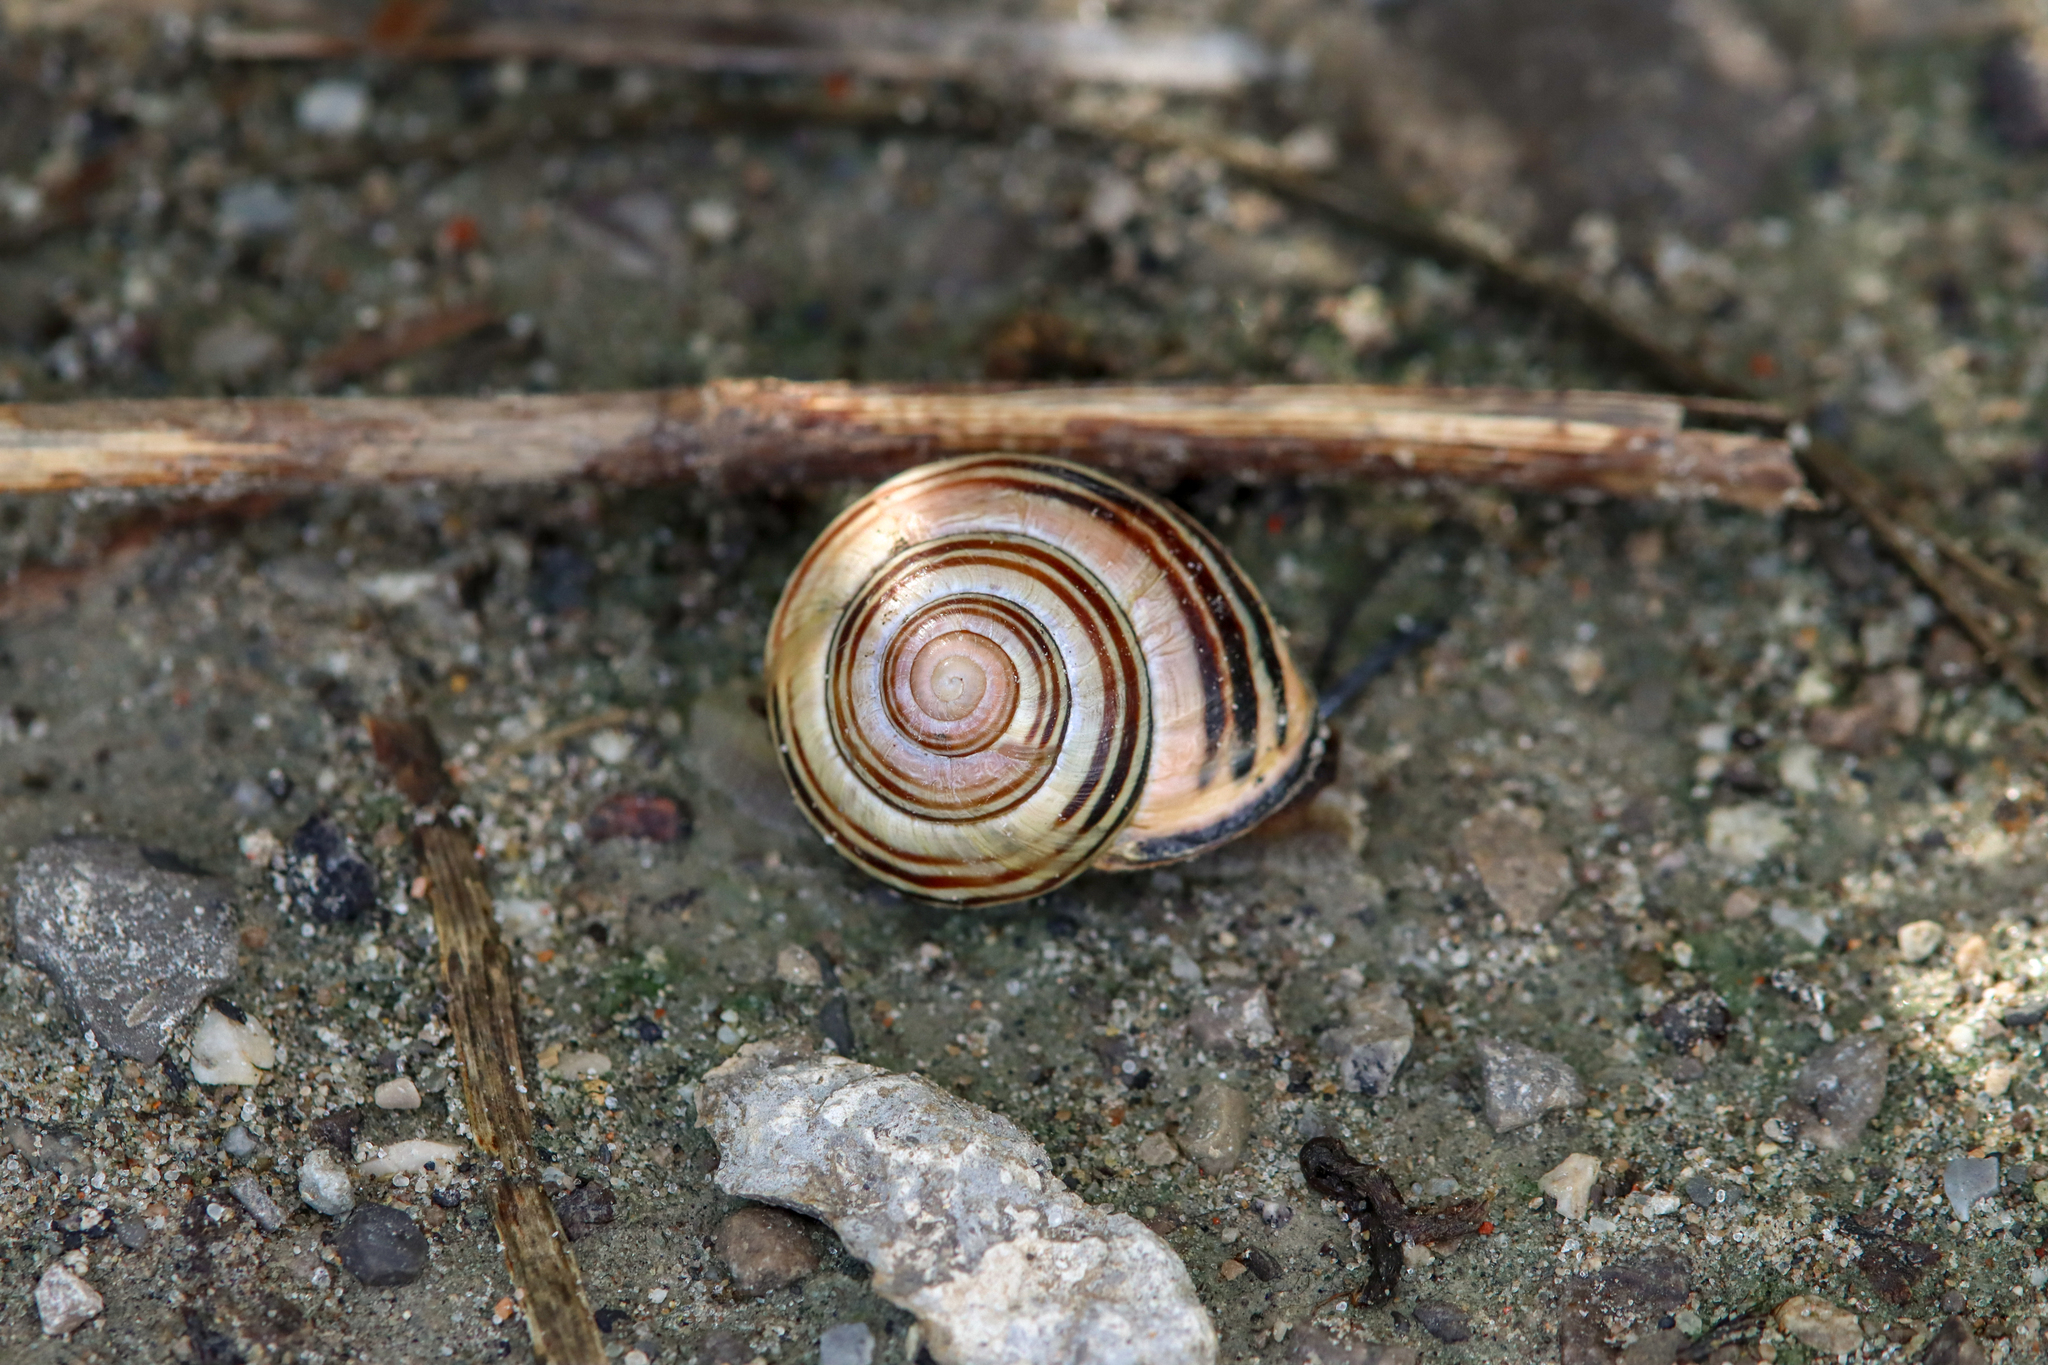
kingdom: Animalia
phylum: Mollusca
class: Gastropoda
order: Stylommatophora
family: Helicidae
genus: Cepaea
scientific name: Cepaea nemoralis
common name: Grovesnail
